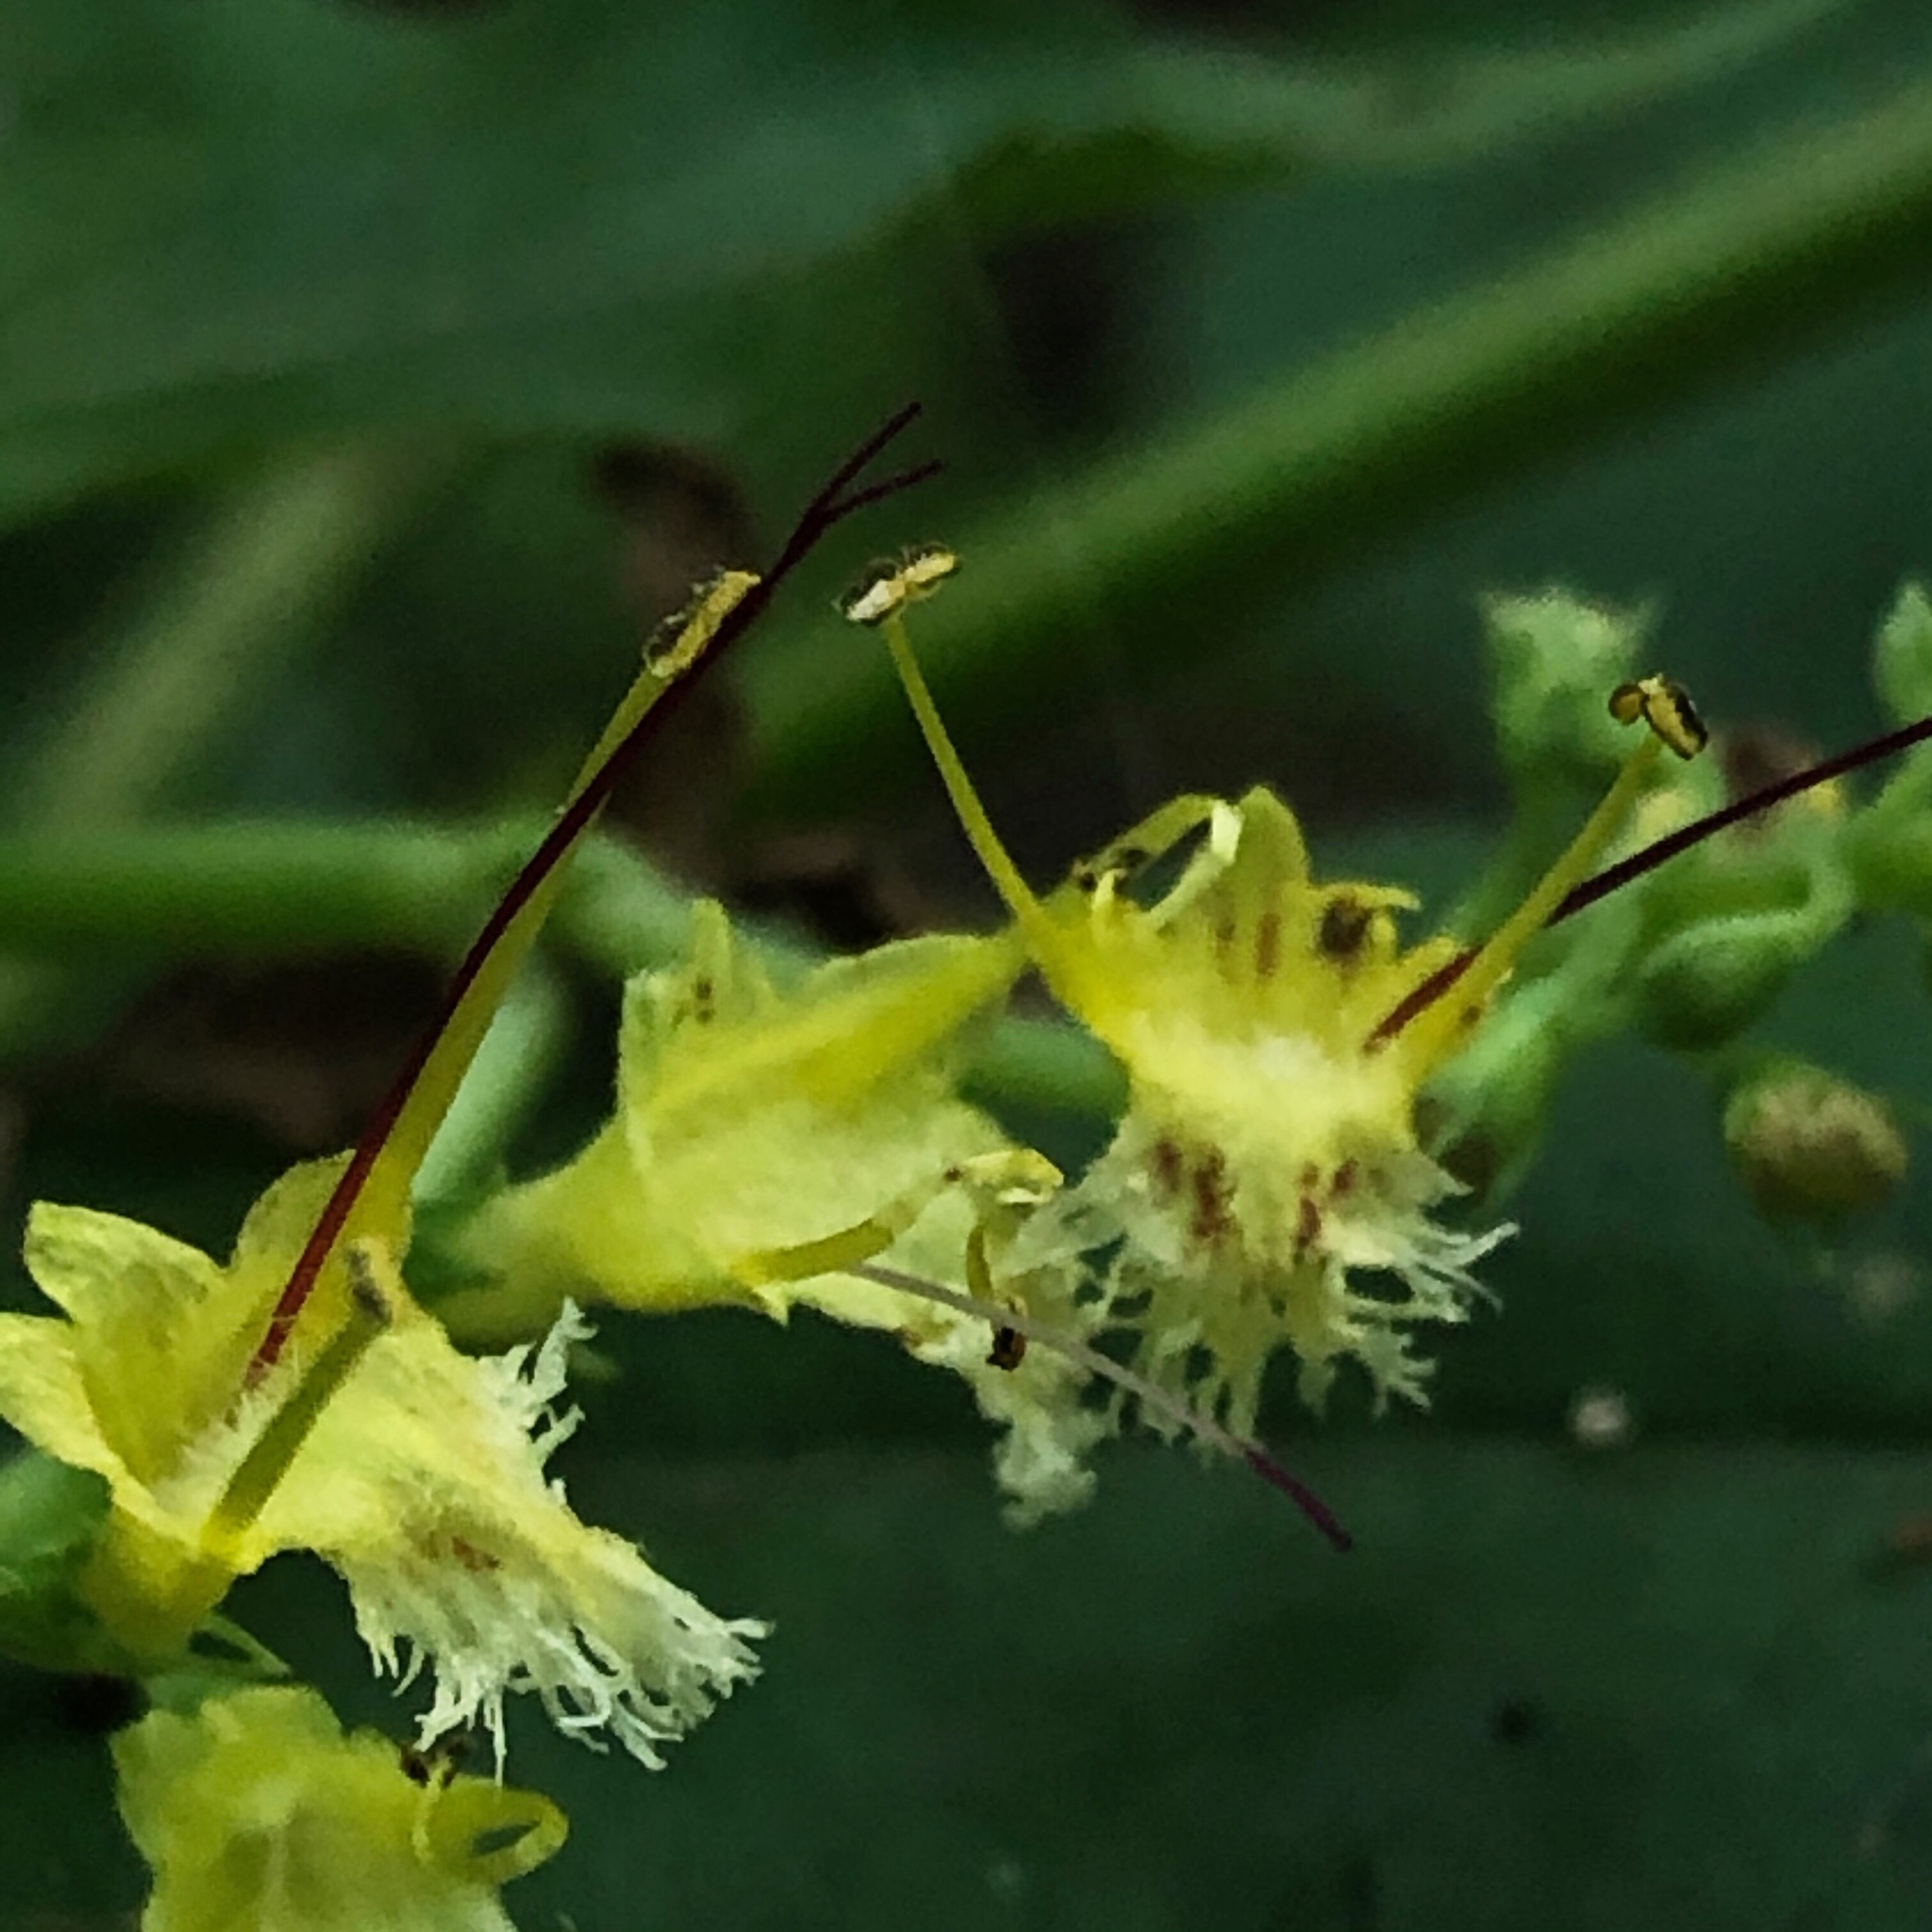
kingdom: Plantae
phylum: Tracheophyta
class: Magnoliopsida
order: Lamiales
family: Lamiaceae
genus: Collinsonia
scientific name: Collinsonia canadensis
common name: Northern horsebalm
